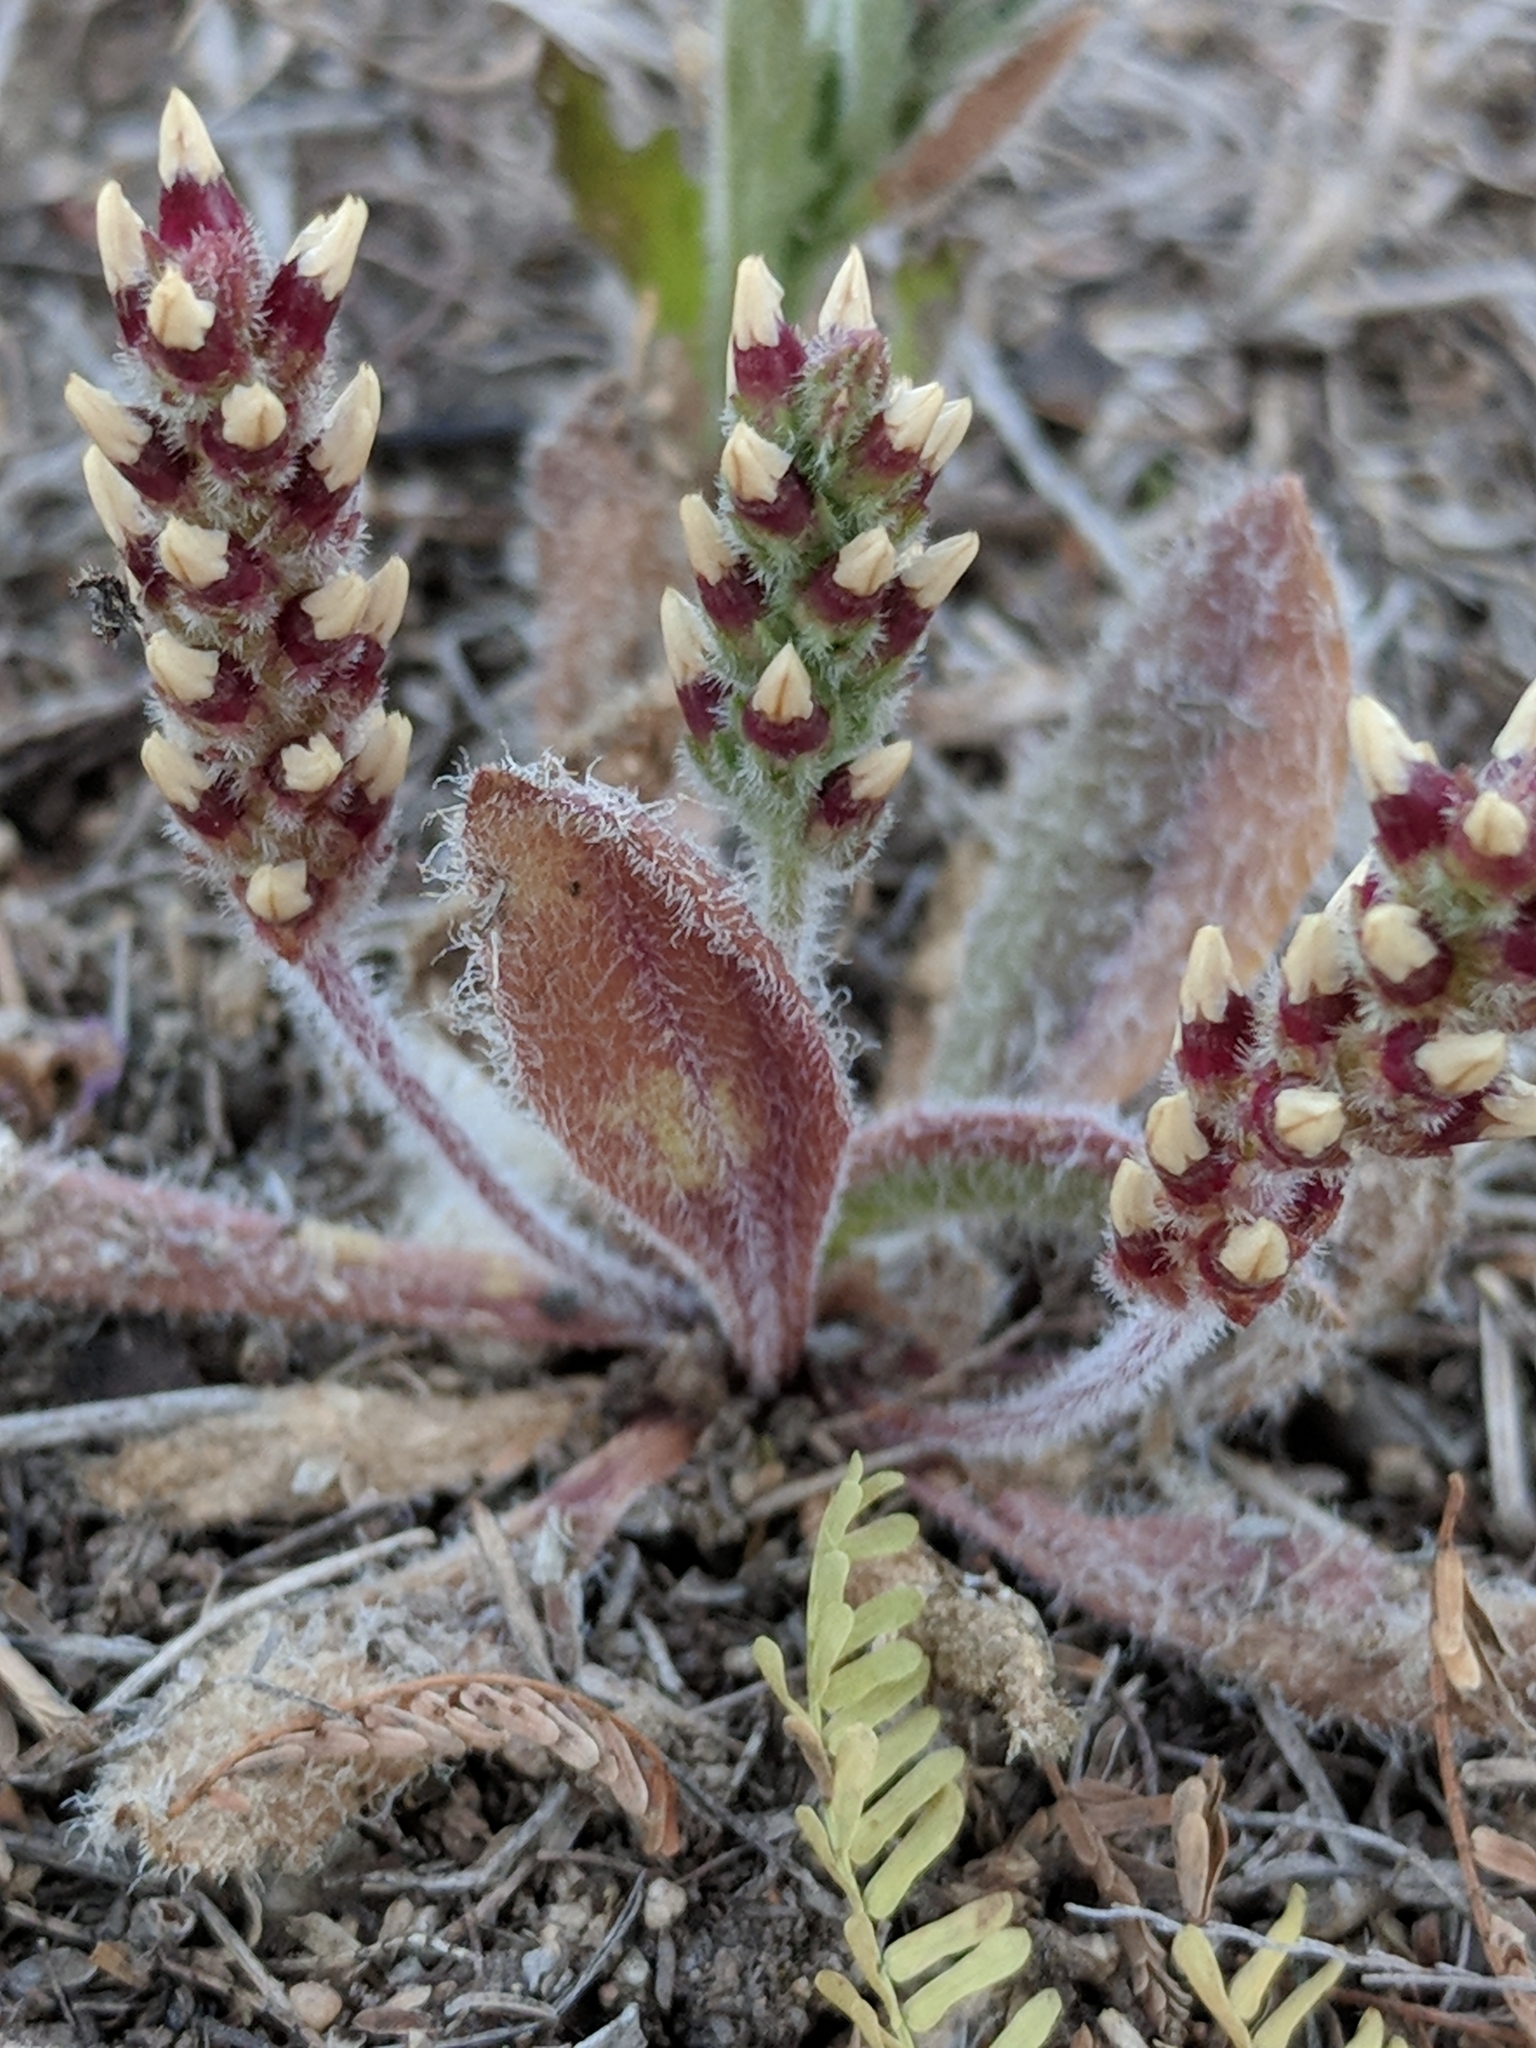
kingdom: Plantae
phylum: Tracheophyta
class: Magnoliopsida
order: Lamiales
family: Plantaginaceae
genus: Plantago
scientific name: Plantago rhodosperma
